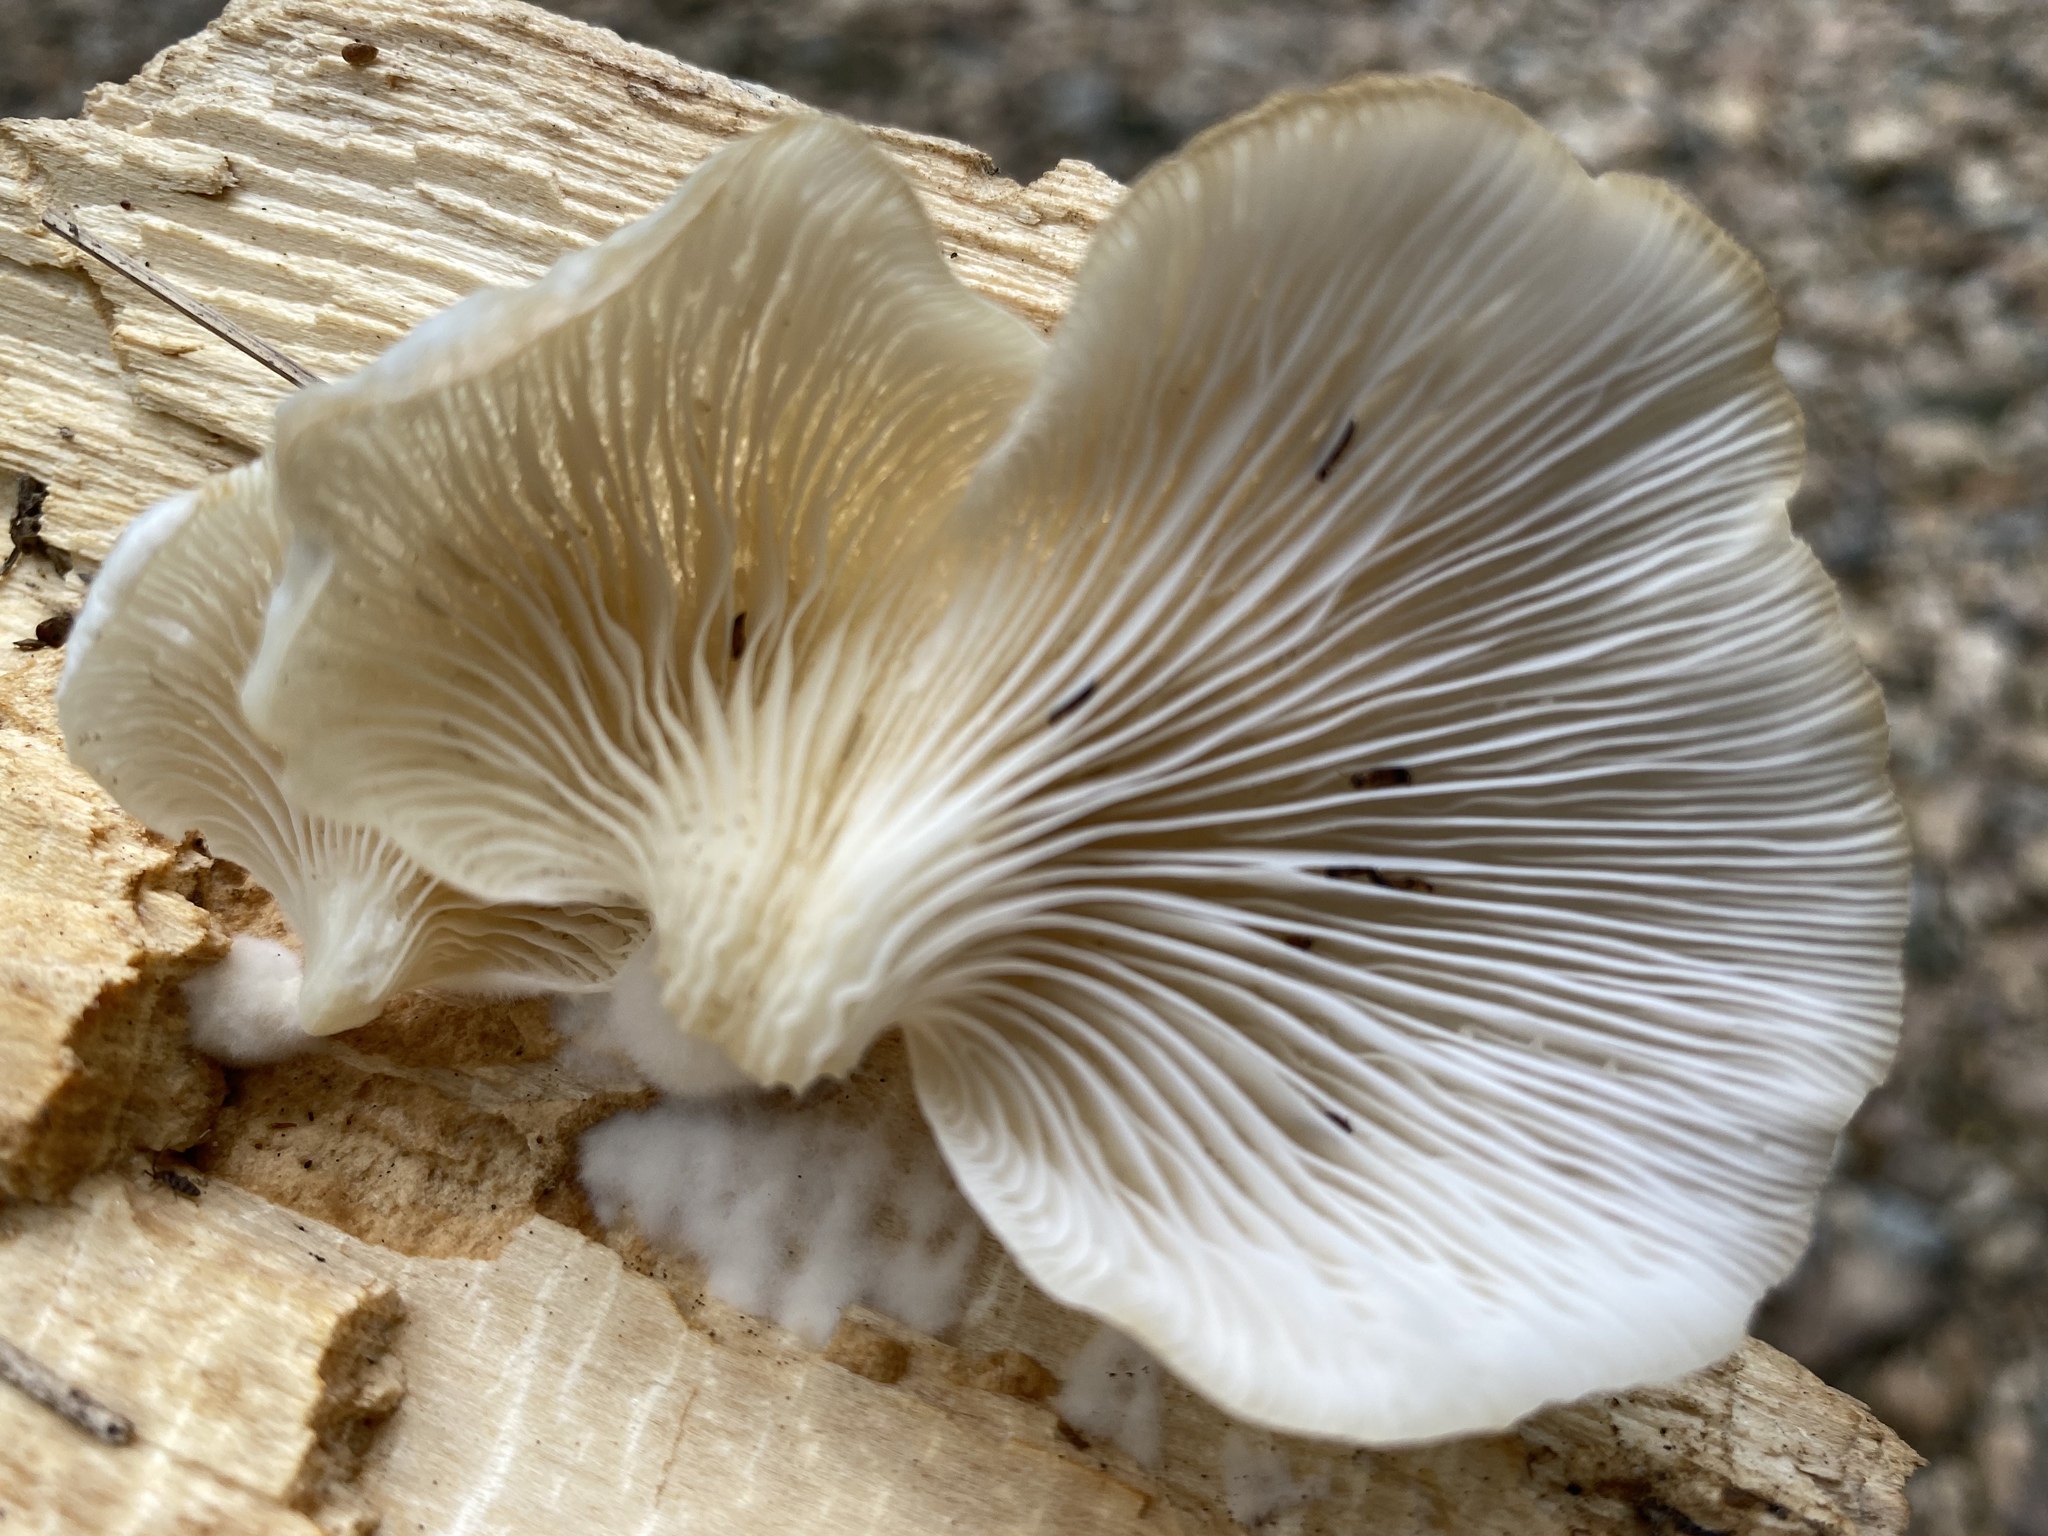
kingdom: Fungi
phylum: Basidiomycota
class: Agaricomycetes
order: Agaricales
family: Pleurotaceae
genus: Pleurotus
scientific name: Pleurotus pulmonarius
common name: Pale oyster
